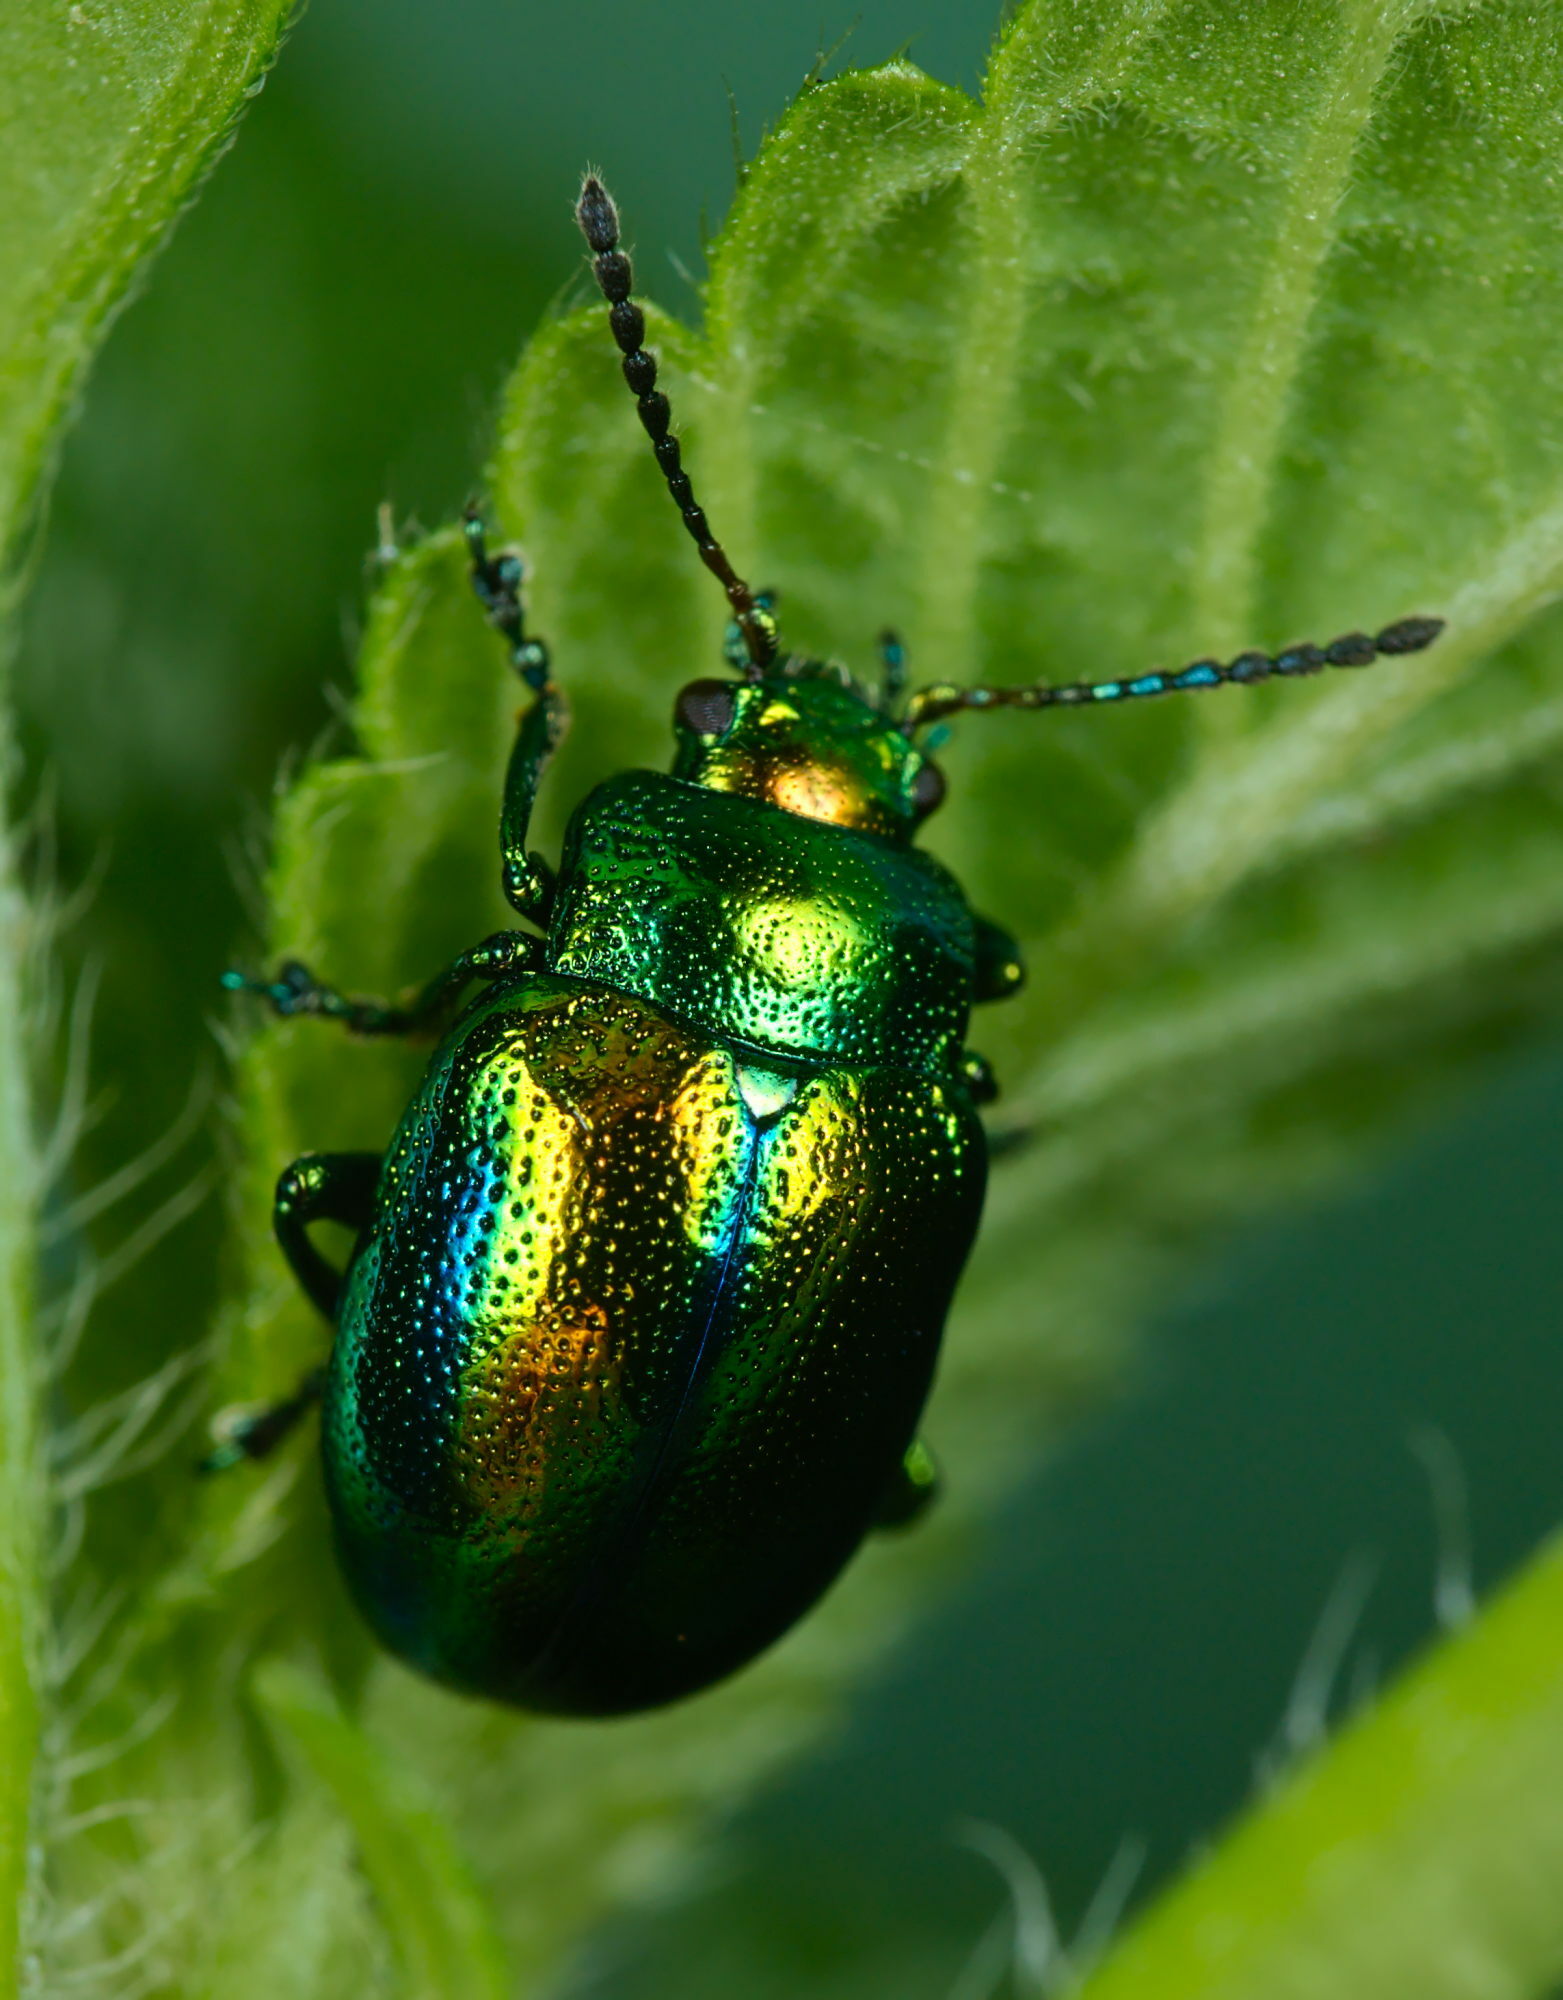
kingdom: Animalia
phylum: Arthropoda
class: Insecta
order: Coleoptera
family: Chrysomelidae
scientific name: Chrysomelidae
